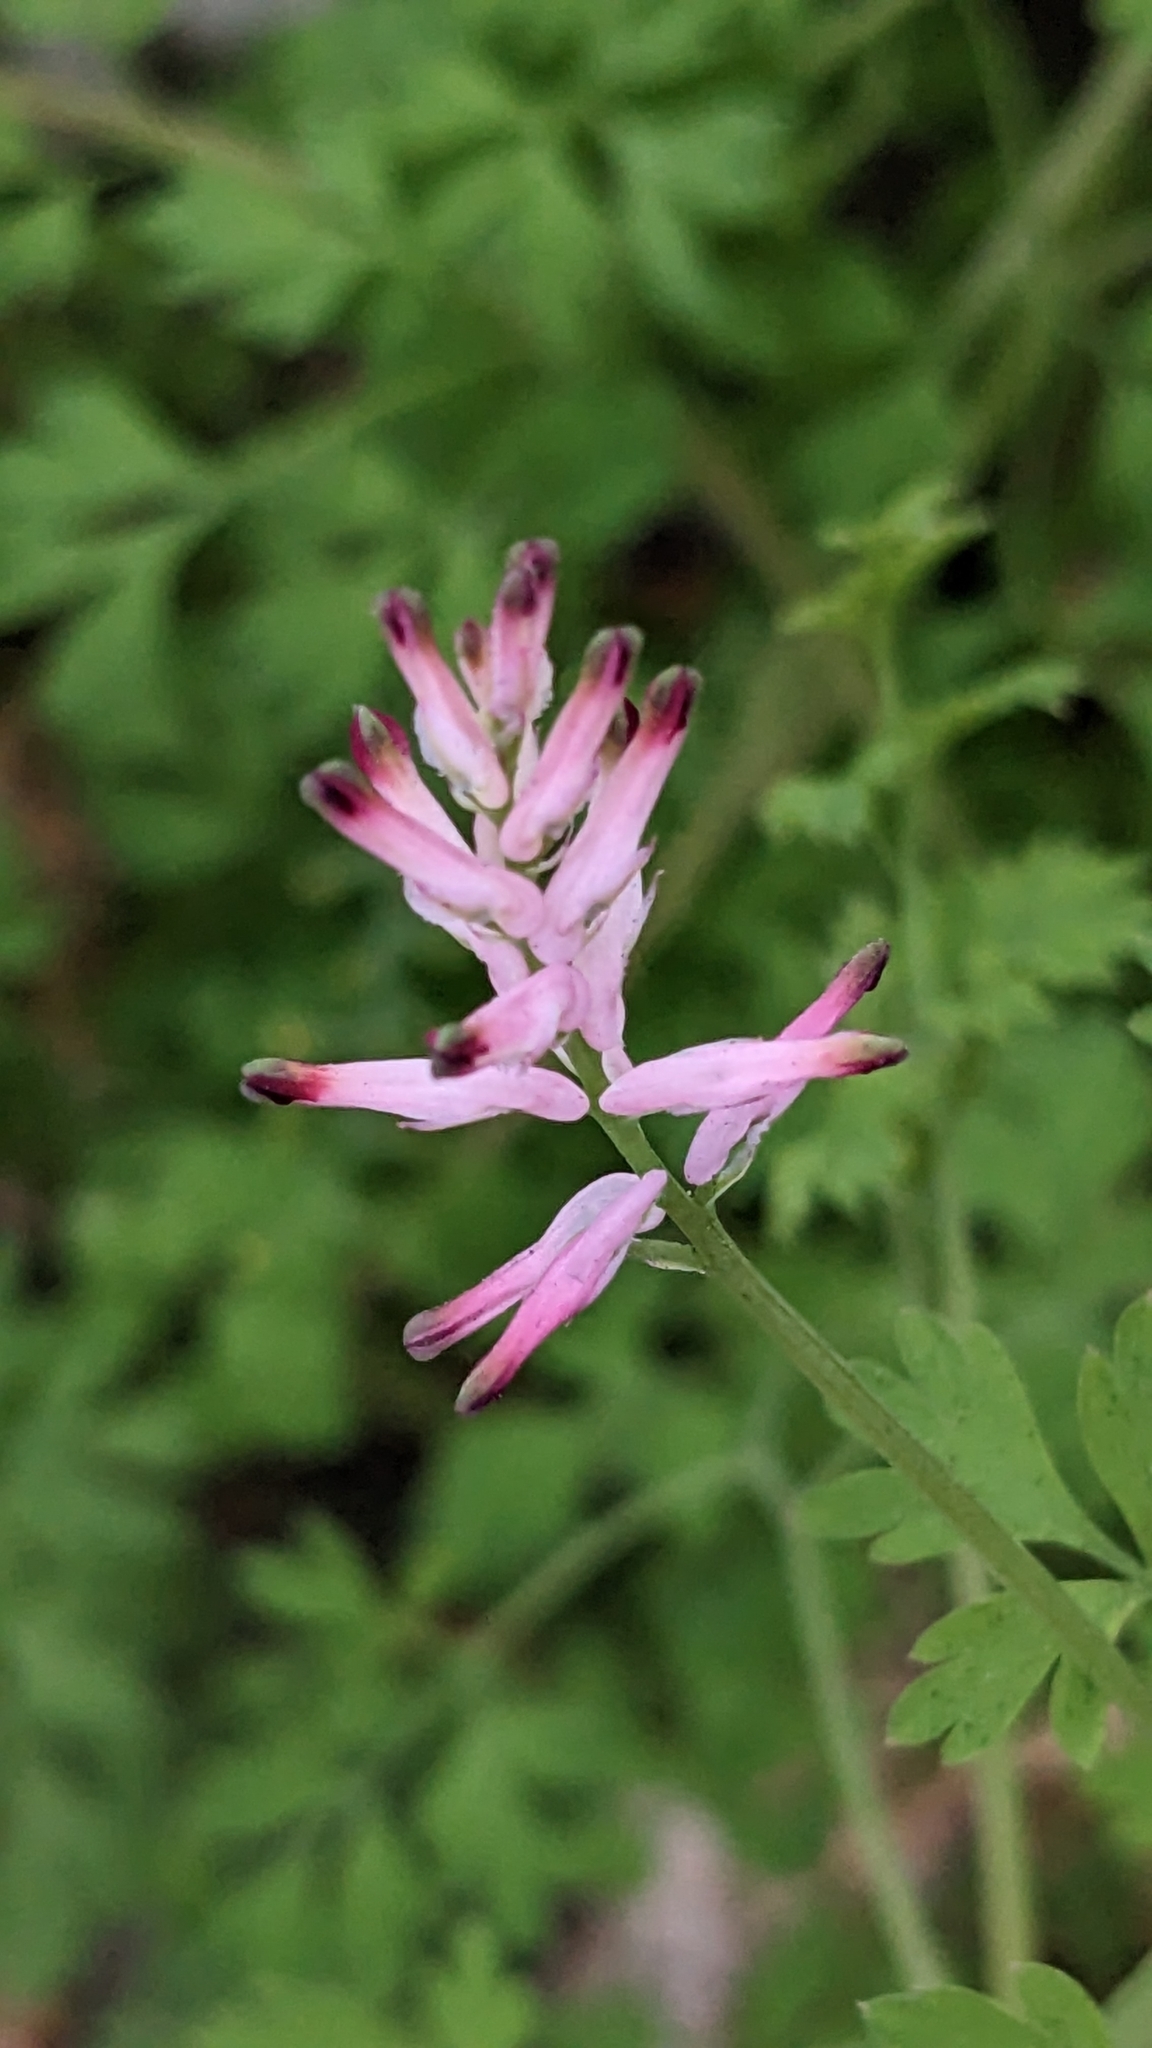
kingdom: Plantae
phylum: Tracheophyta
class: Magnoliopsida
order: Ranunculales
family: Papaveraceae
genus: Fumaria
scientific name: Fumaria muralis
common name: Common ramping-fumitory
